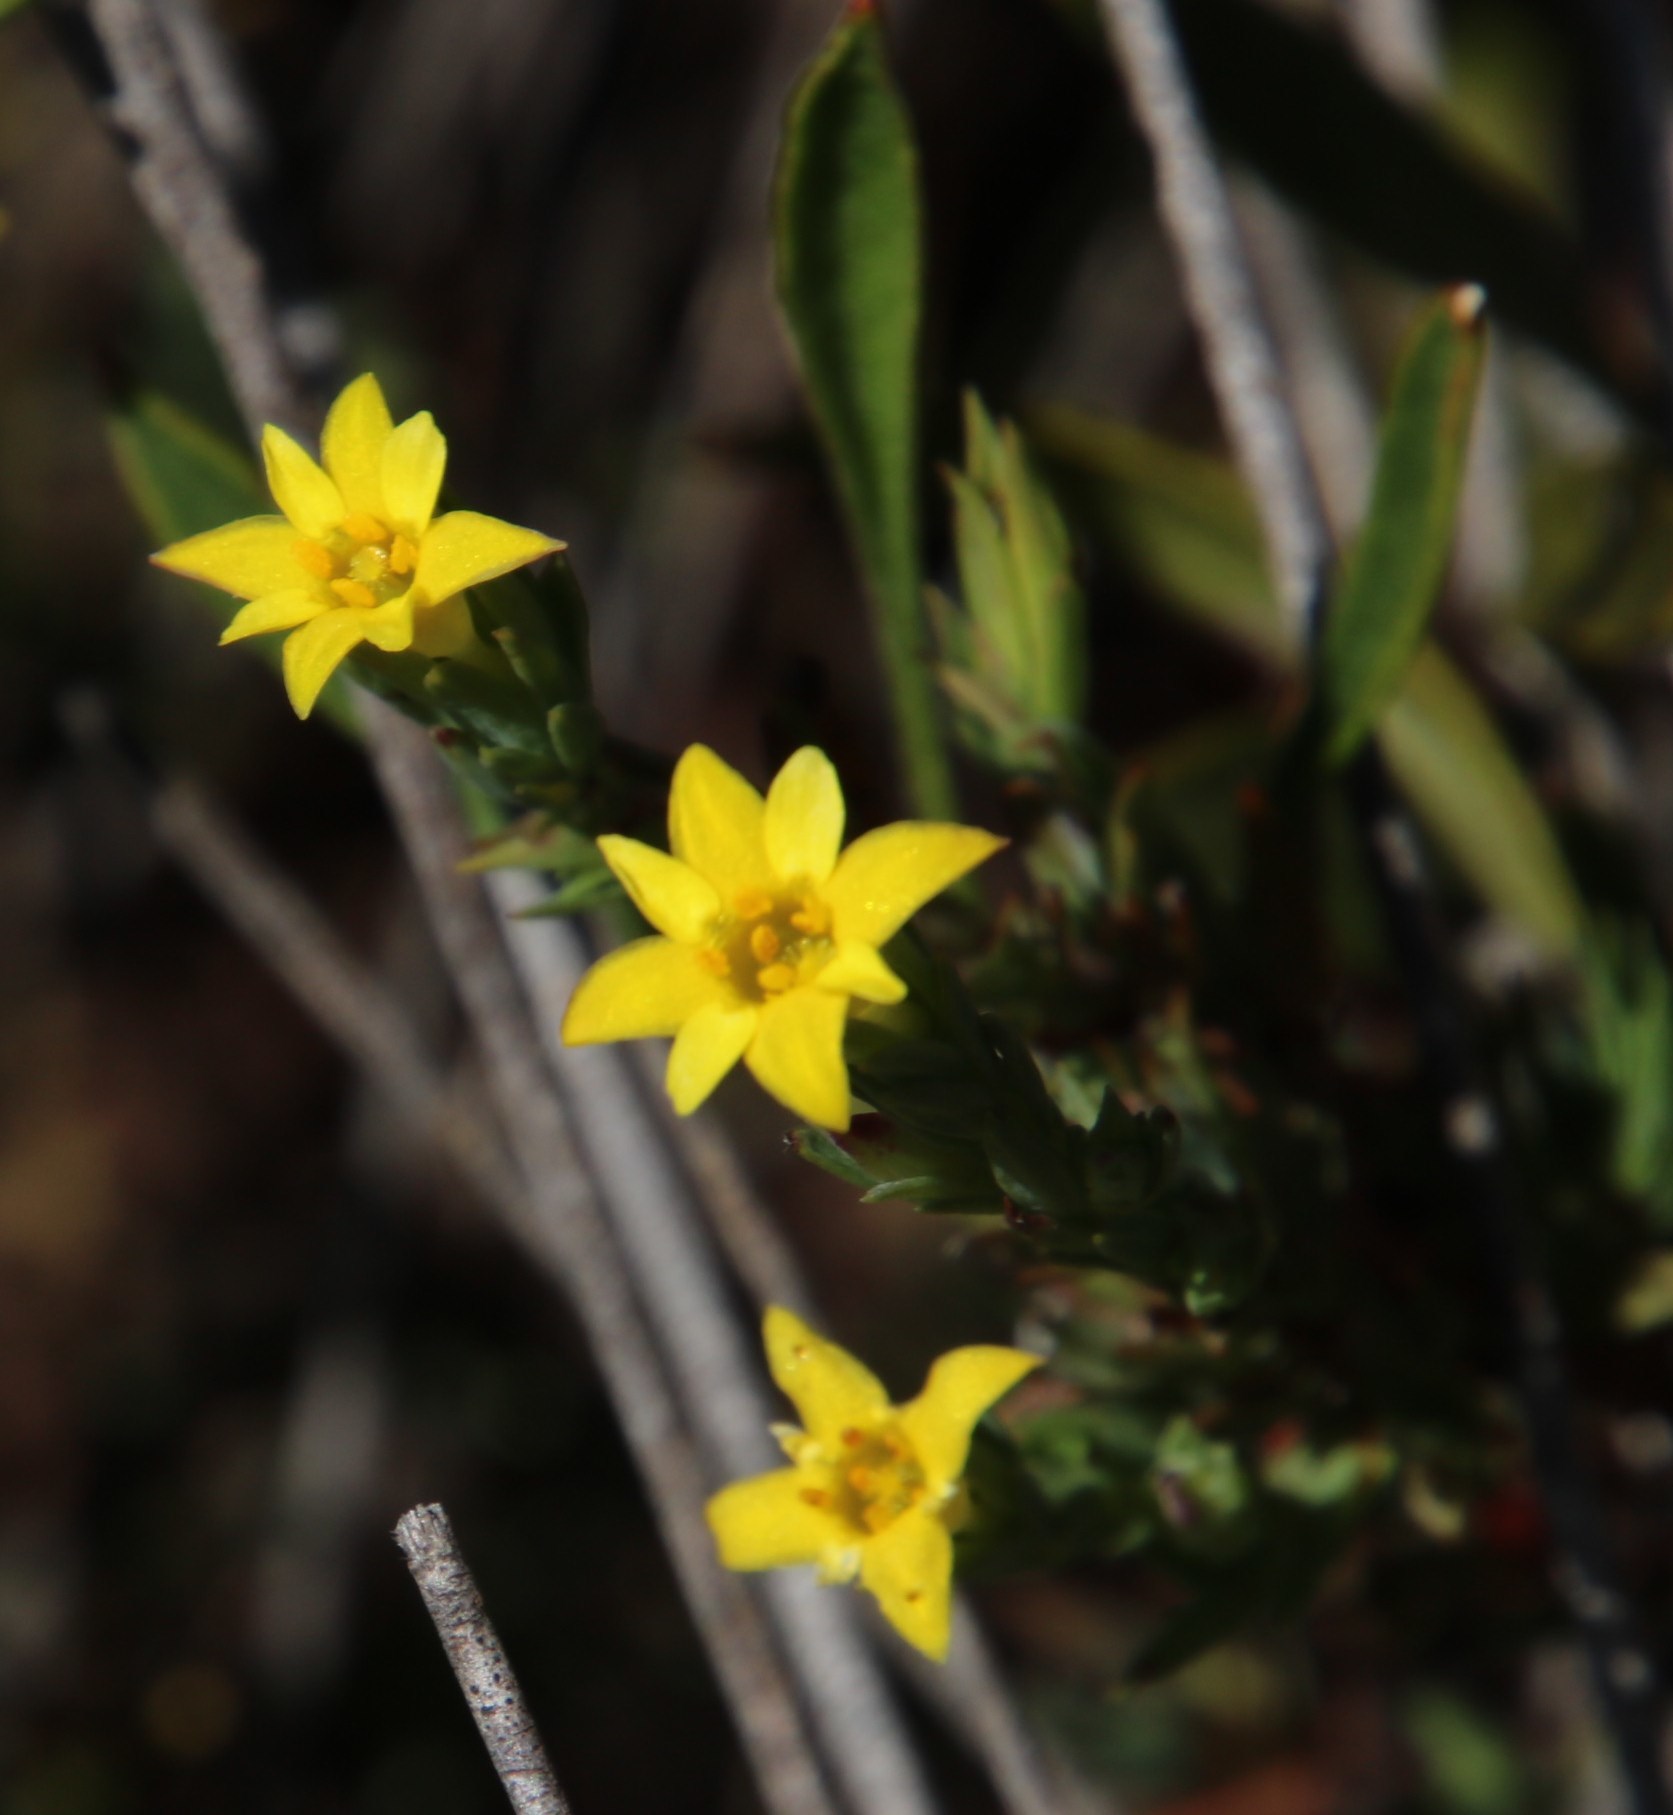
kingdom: Plantae
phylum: Tracheophyta
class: Magnoliopsida
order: Malvales
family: Thymelaeaceae
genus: Gnidia
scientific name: Gnidia juniperifolia
